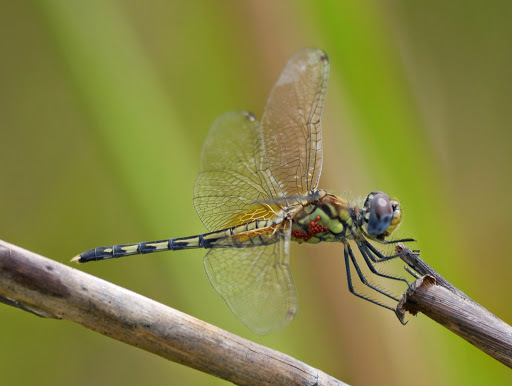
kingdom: Animalia
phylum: Arthropoda
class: Insecta
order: Odonata
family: Libellulidae
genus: Diplacodes
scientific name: Diplacodes luminans
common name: Barbet percher
